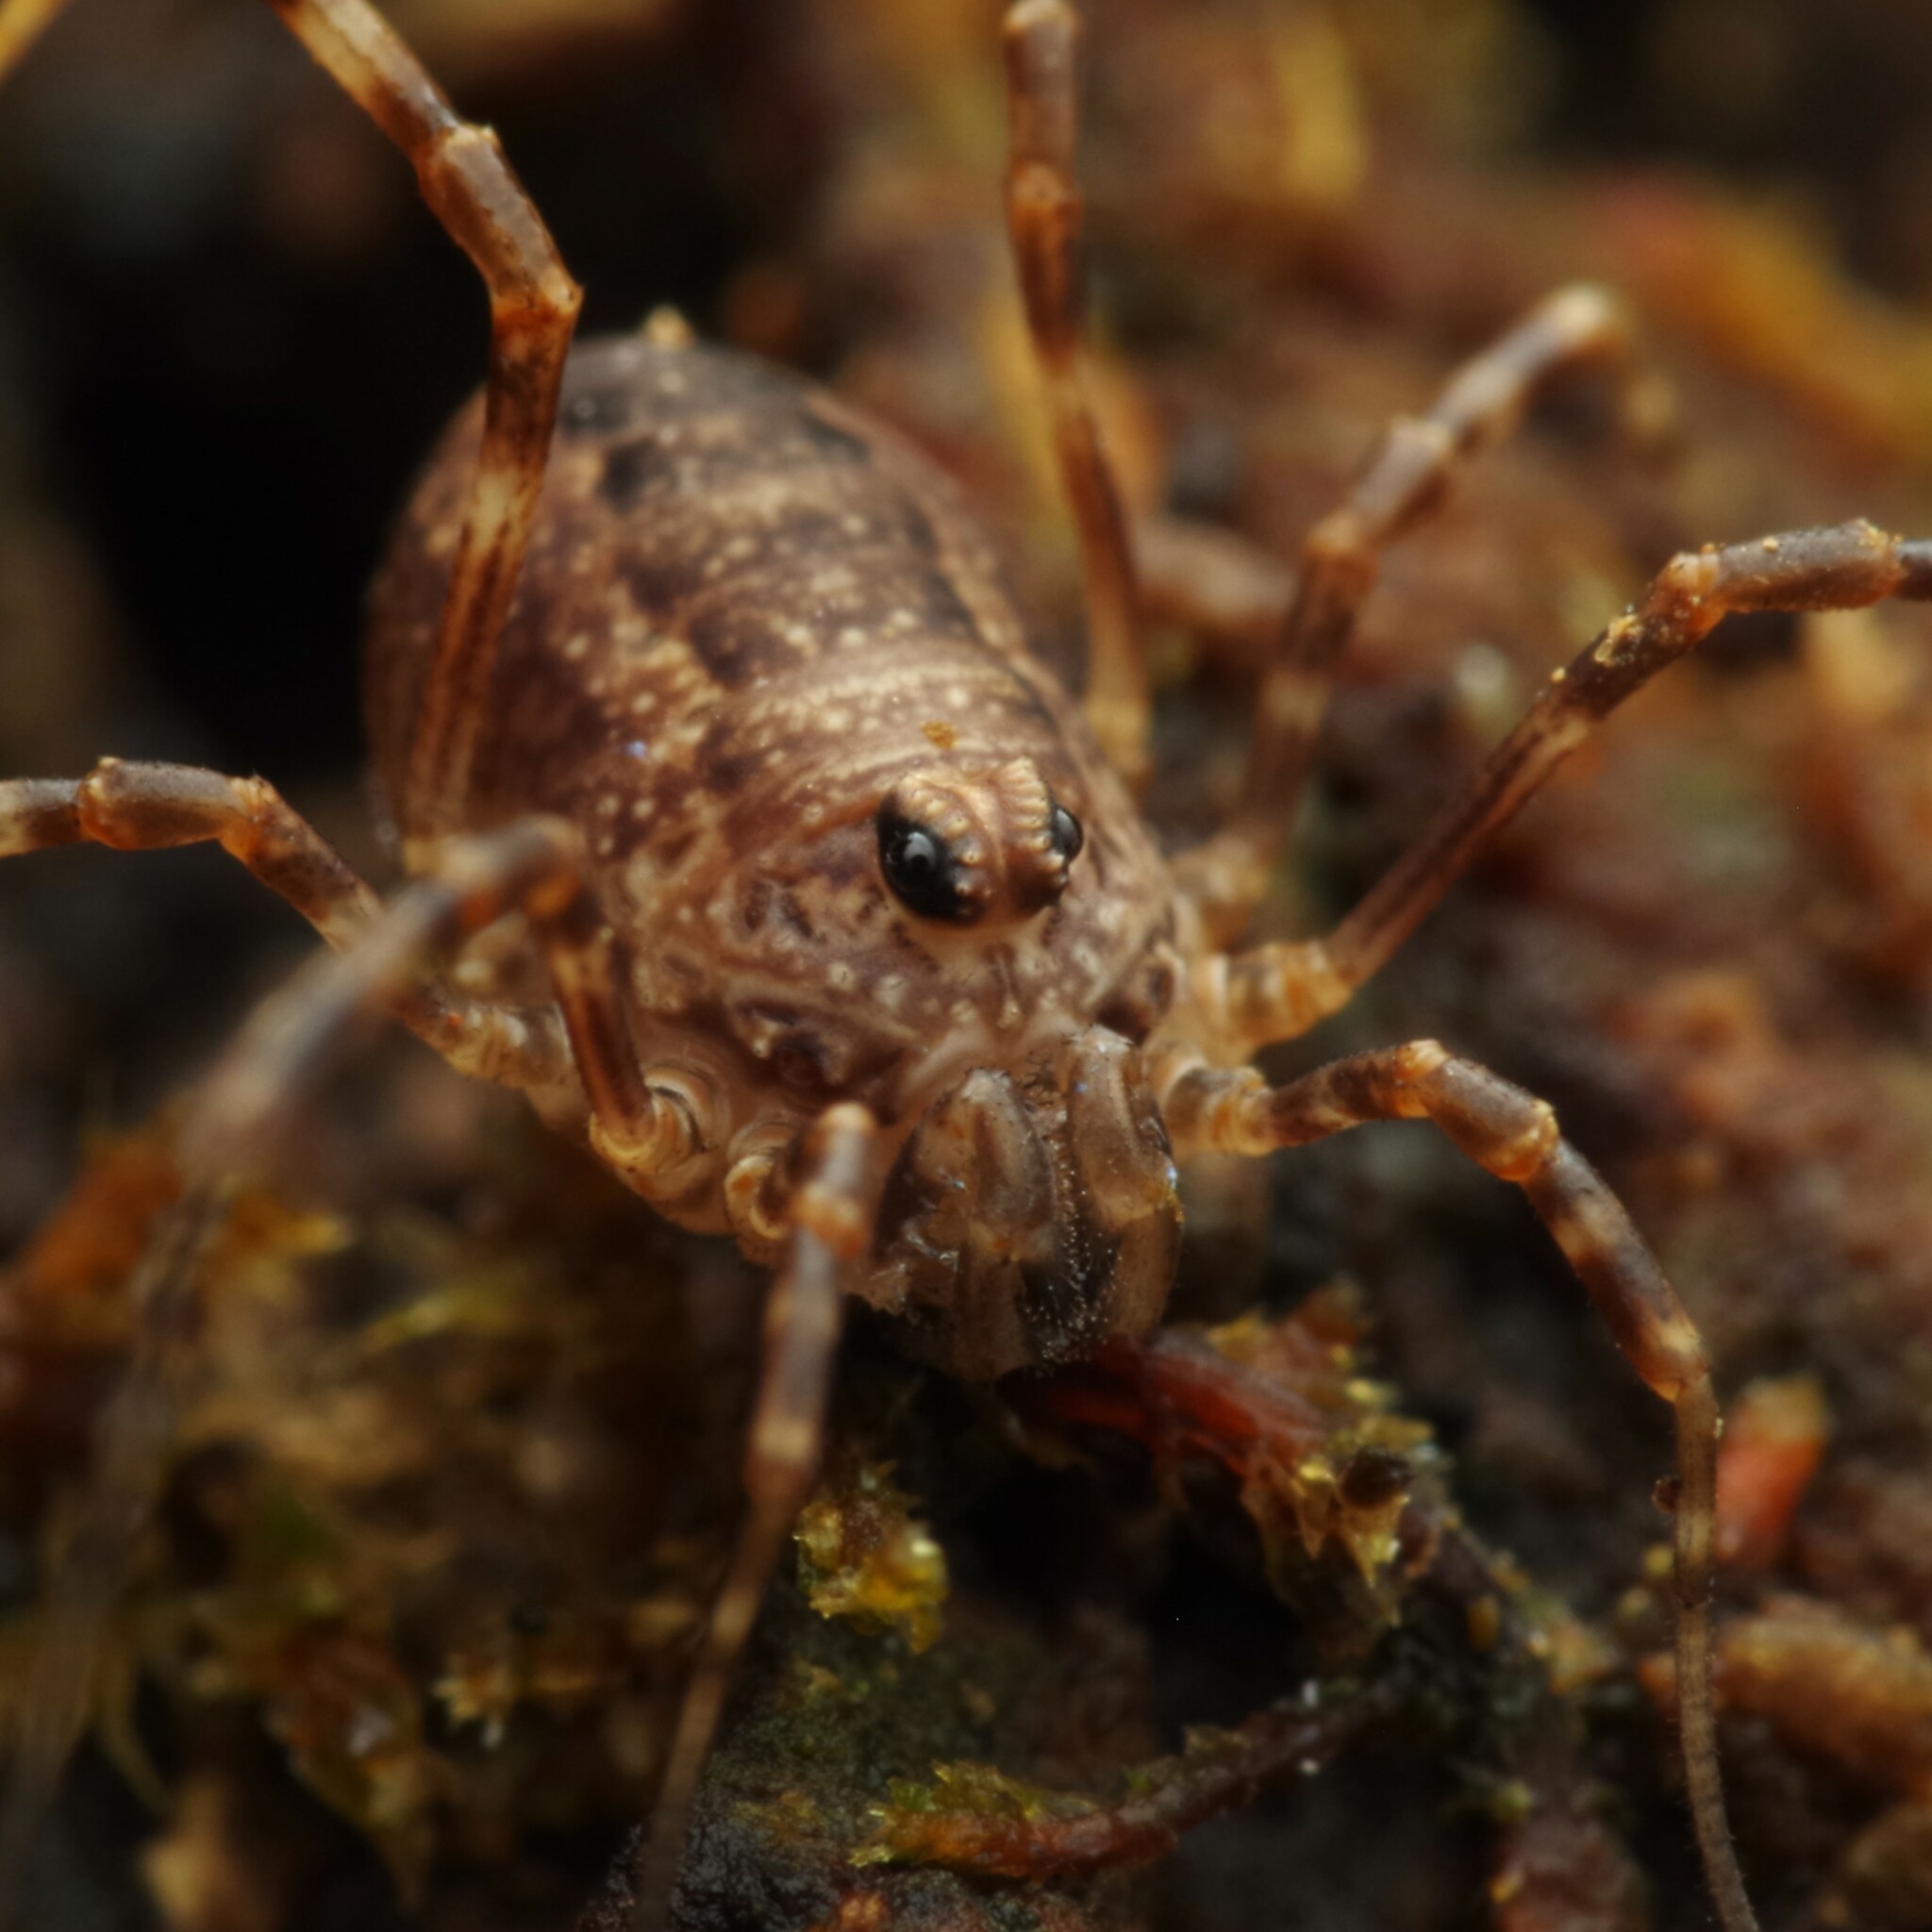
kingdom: Animalia
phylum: Arthropoda
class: Arachnida
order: Opiliones
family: Phalangiidae
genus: Rilaena
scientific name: Rilaena triangularis
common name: Spring harvestman
